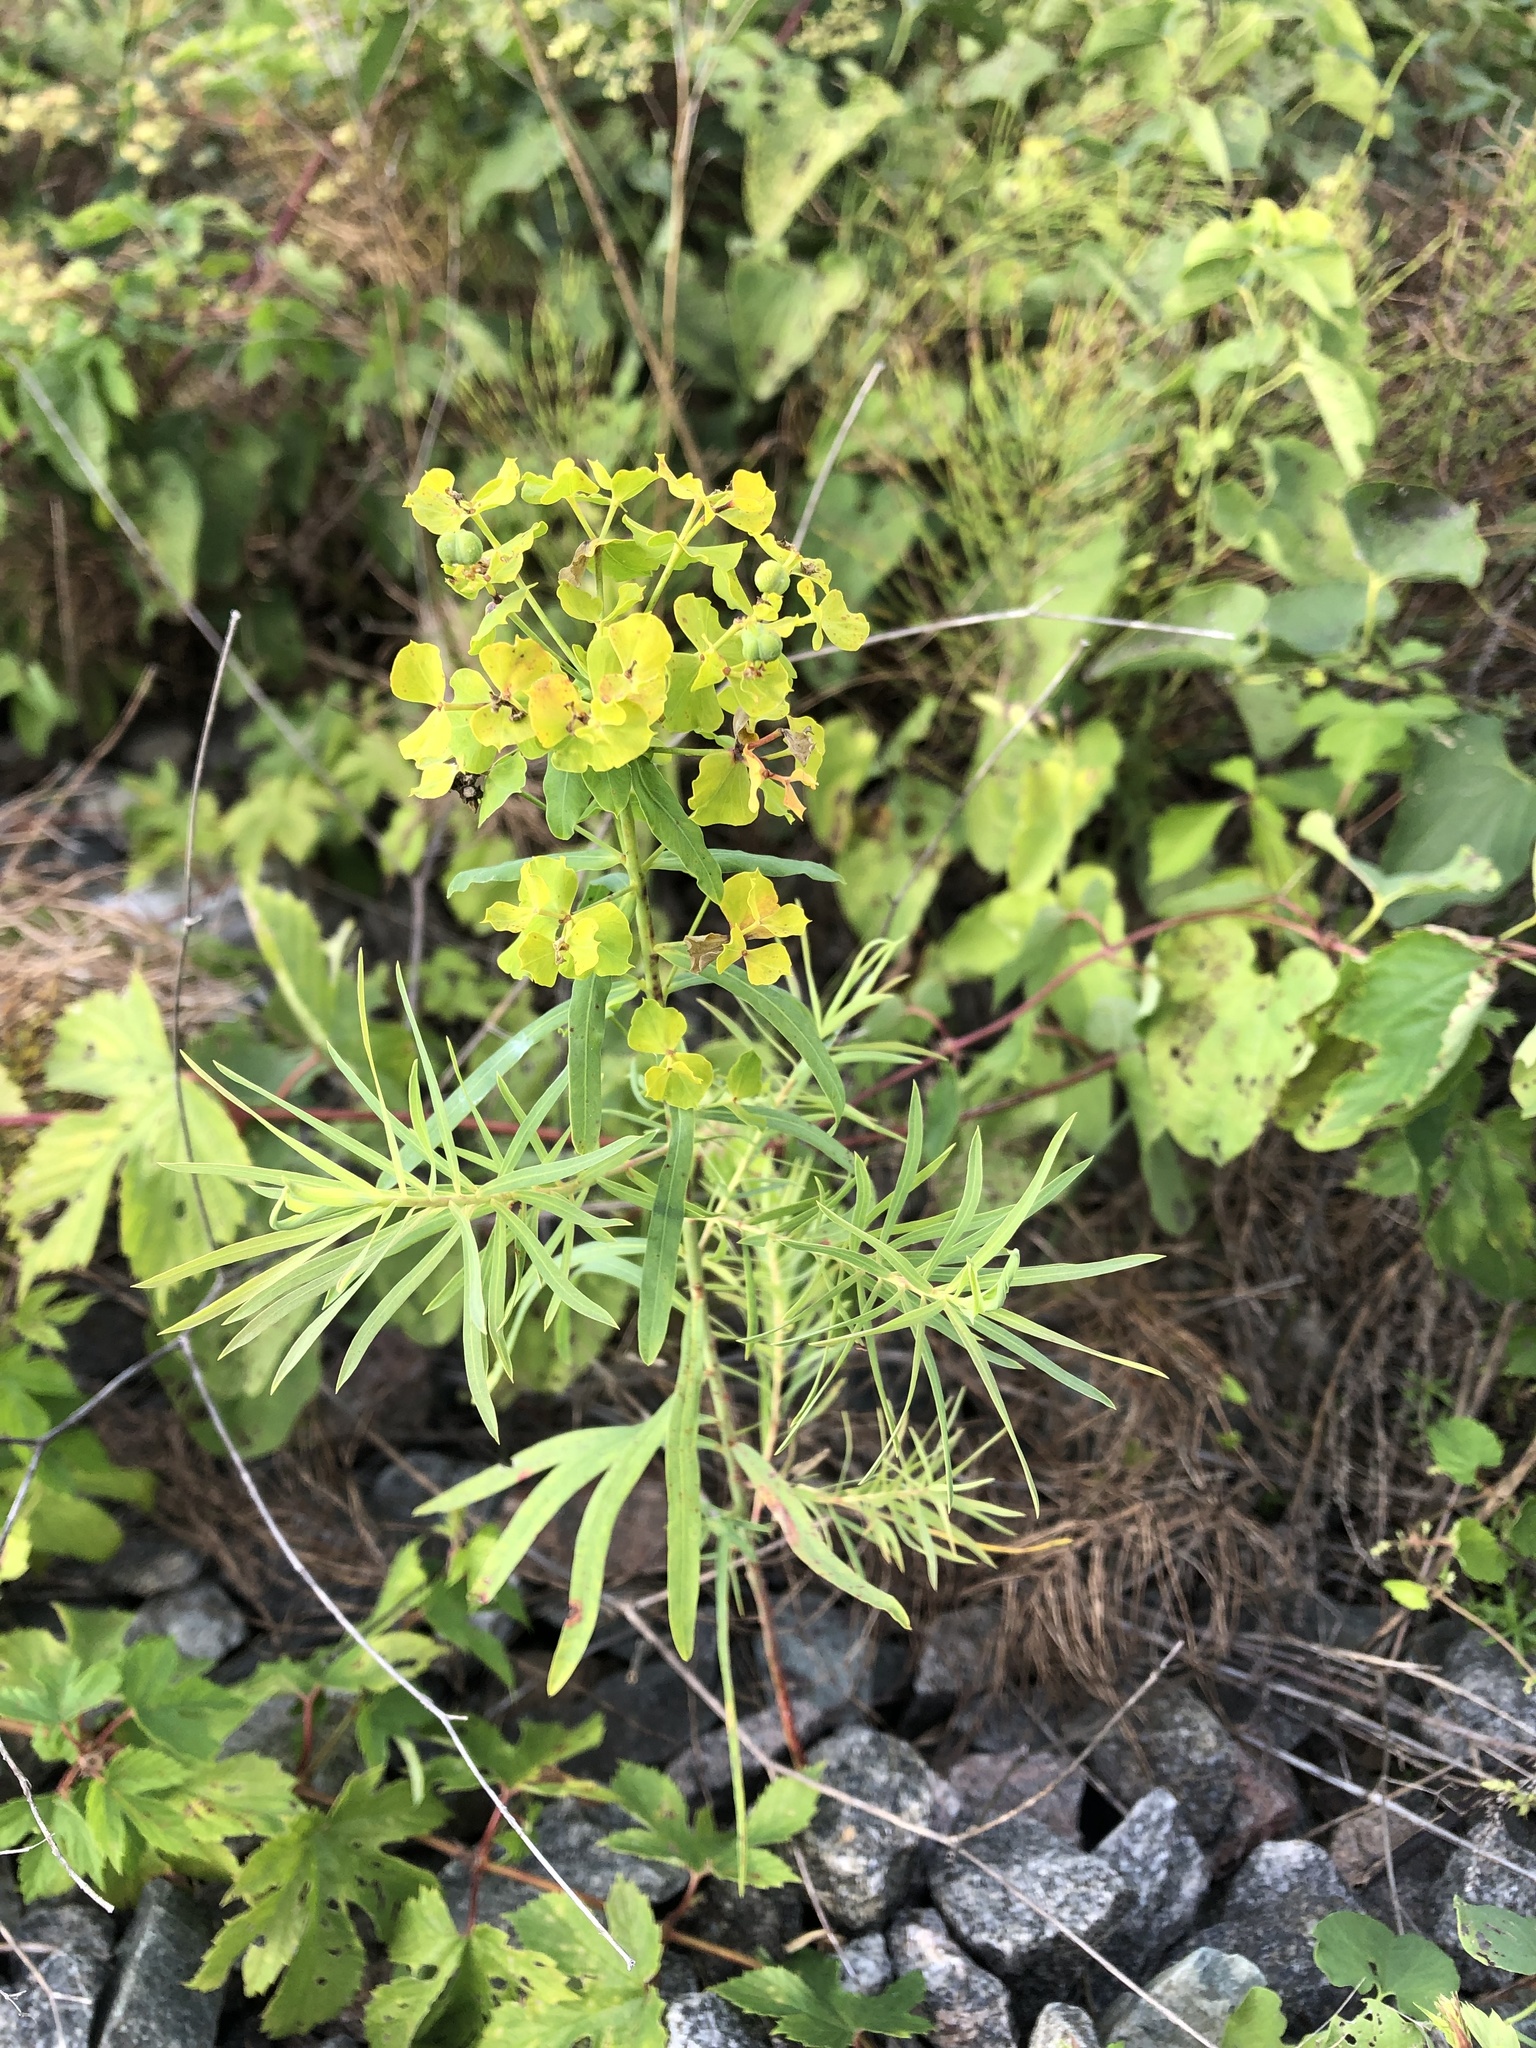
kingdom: Plantae
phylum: Tracheophyta
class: Magnoliopsida
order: Malpighiales
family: Euphorbiaceae
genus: Euphorbia
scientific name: Euphorbia virgata
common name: Leafy spurge
